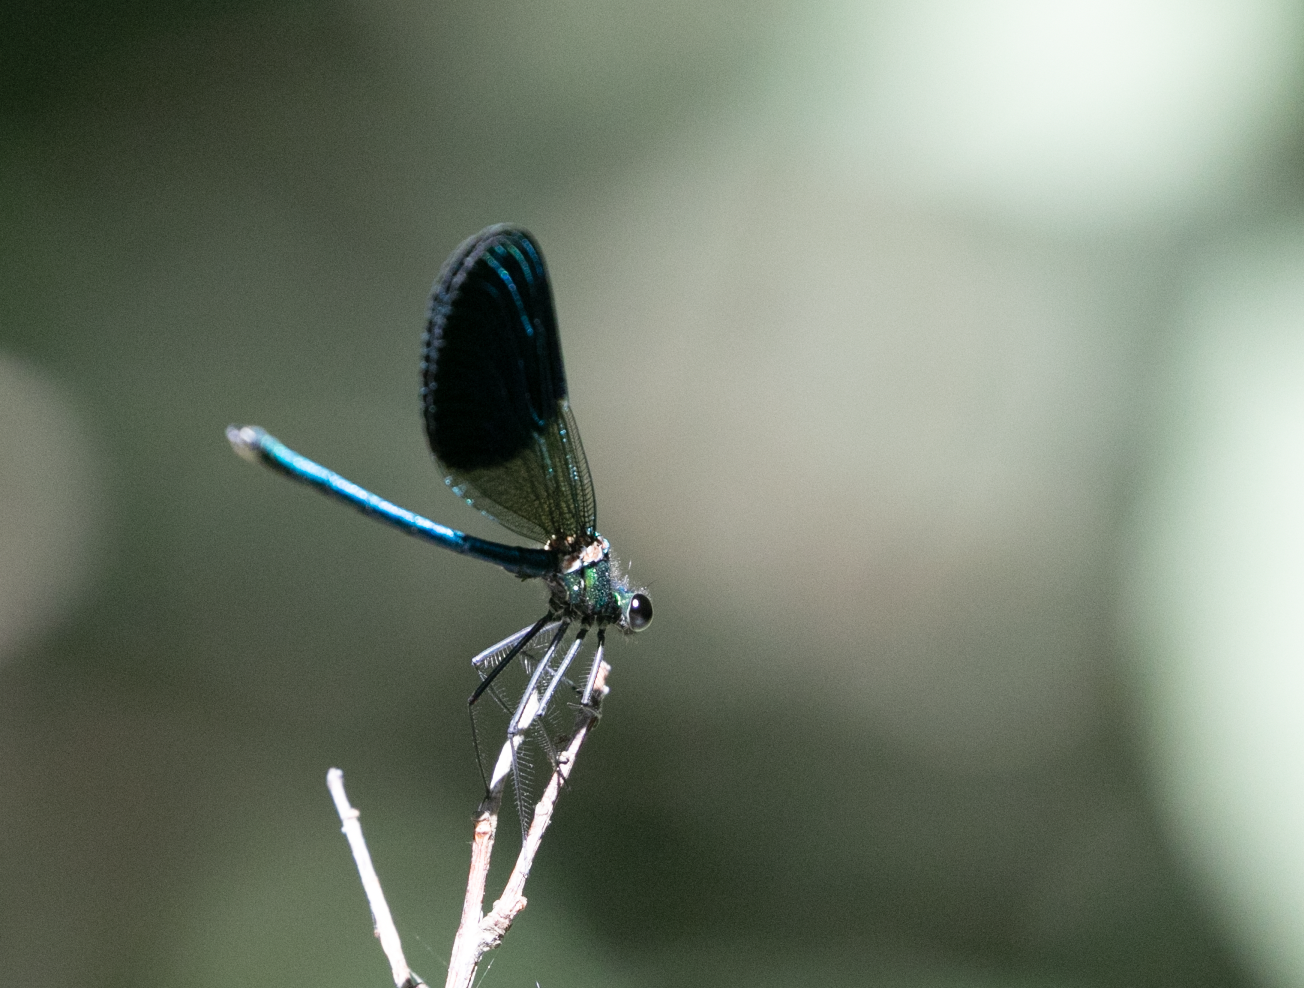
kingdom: Animalia
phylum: Arthropoda
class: Insecta
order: Odonata
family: Calopterygidae
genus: Calopteryx
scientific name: Calopteryx splendens
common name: Banded demoiselle
